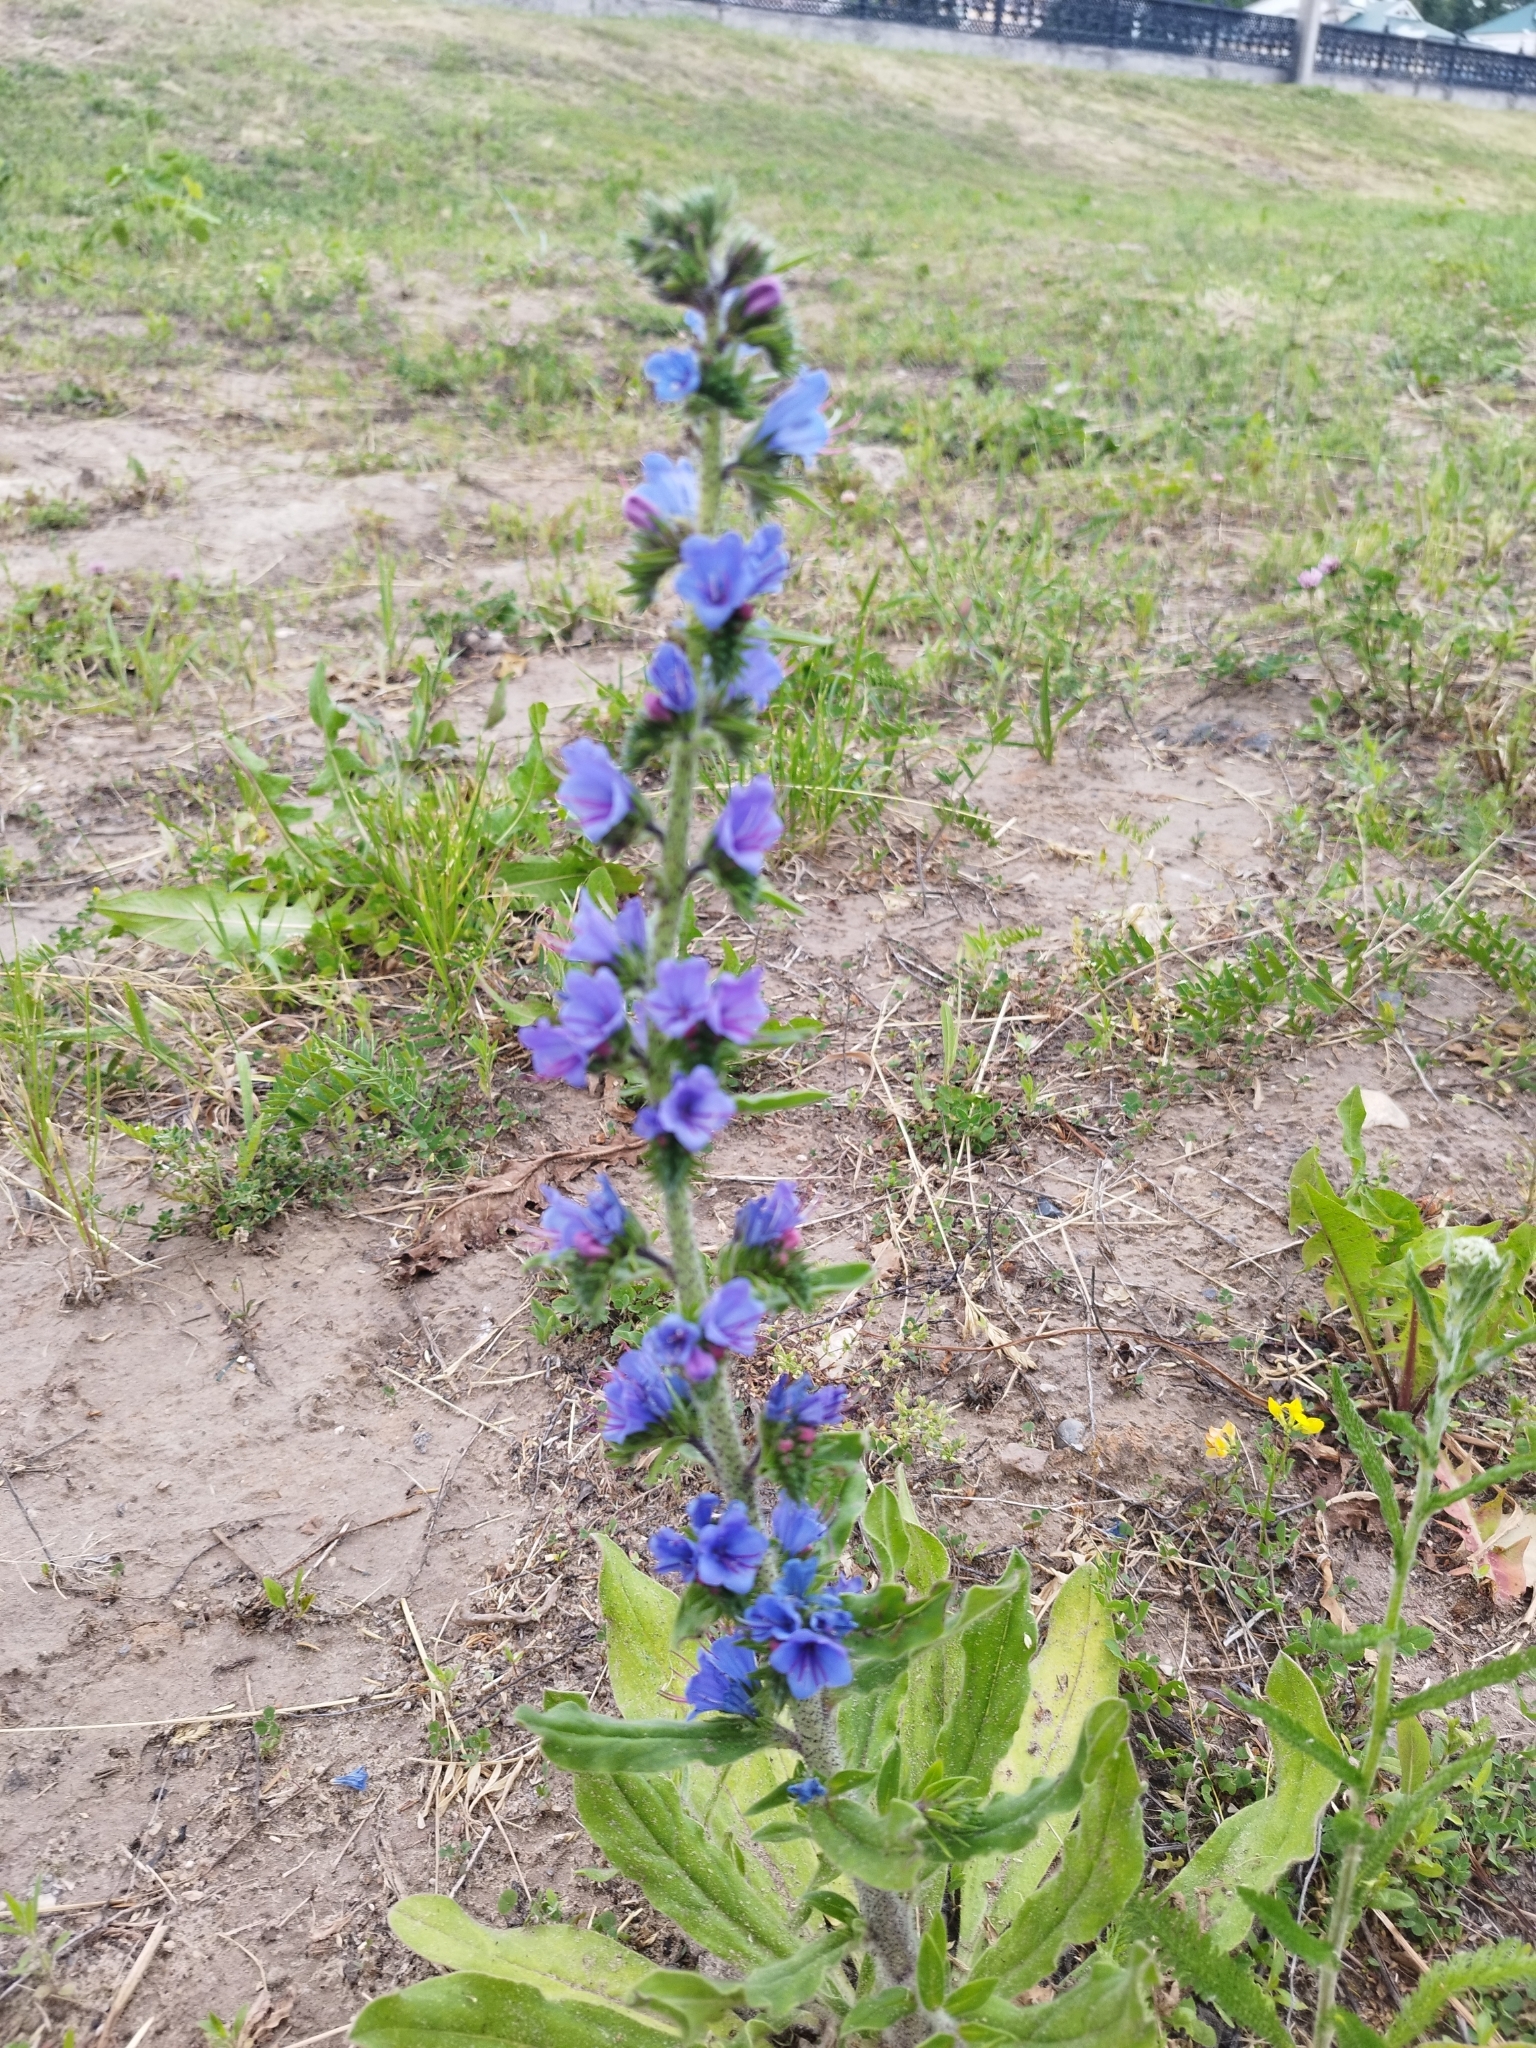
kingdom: Plantae
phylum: Tracheophyta
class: Magnoliopsida
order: Boraginales
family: Boraginaceae
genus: Echium
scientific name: Echium vulgare
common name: Common viper's bugloss
